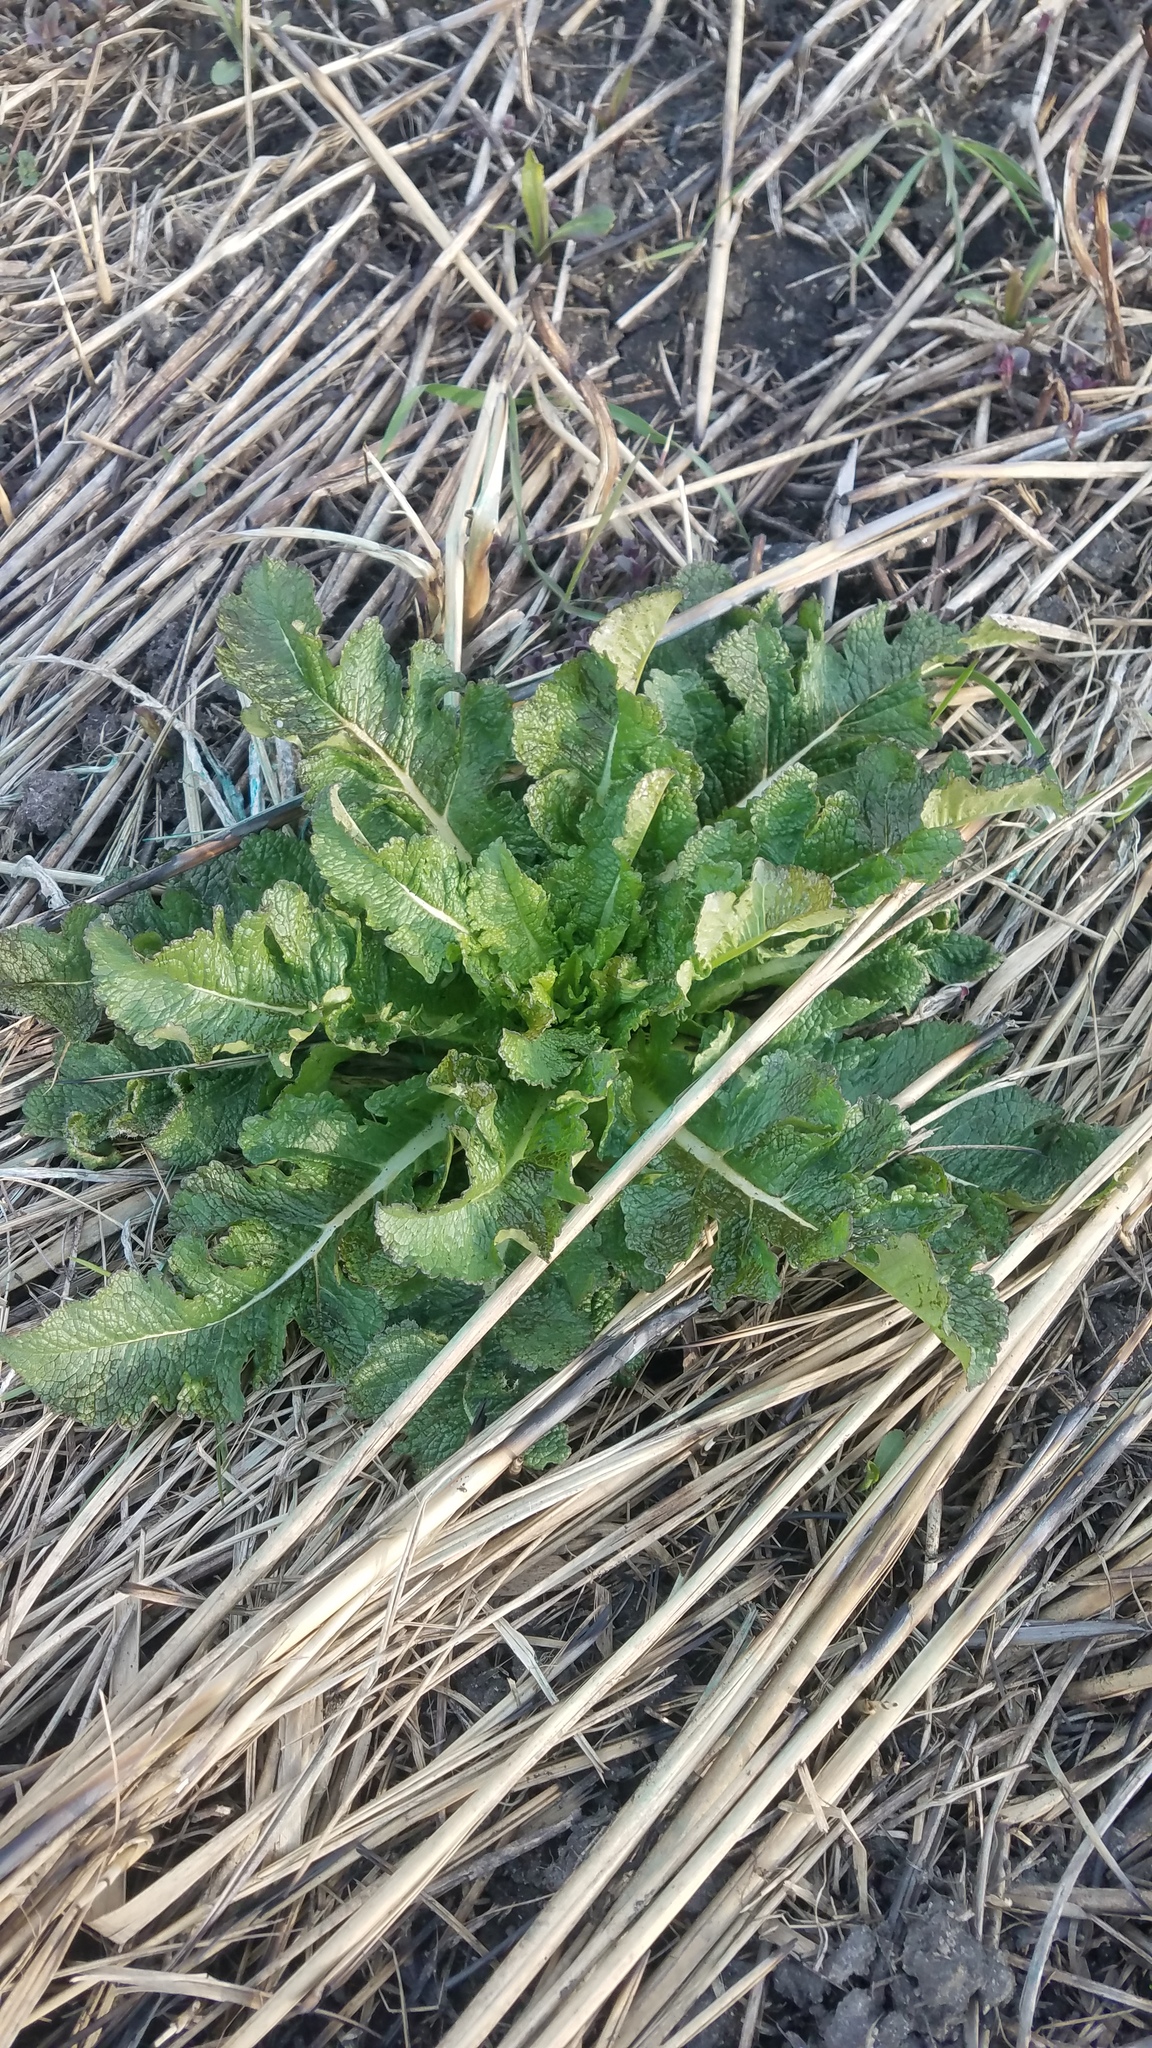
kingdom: Plantae
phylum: Tracheophyta
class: Magnoliopsida
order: Dipsacales
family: Caprifoliaceae
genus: Dipsacus
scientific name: Dipsacus laciniatus
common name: Cut-leaved teasel
